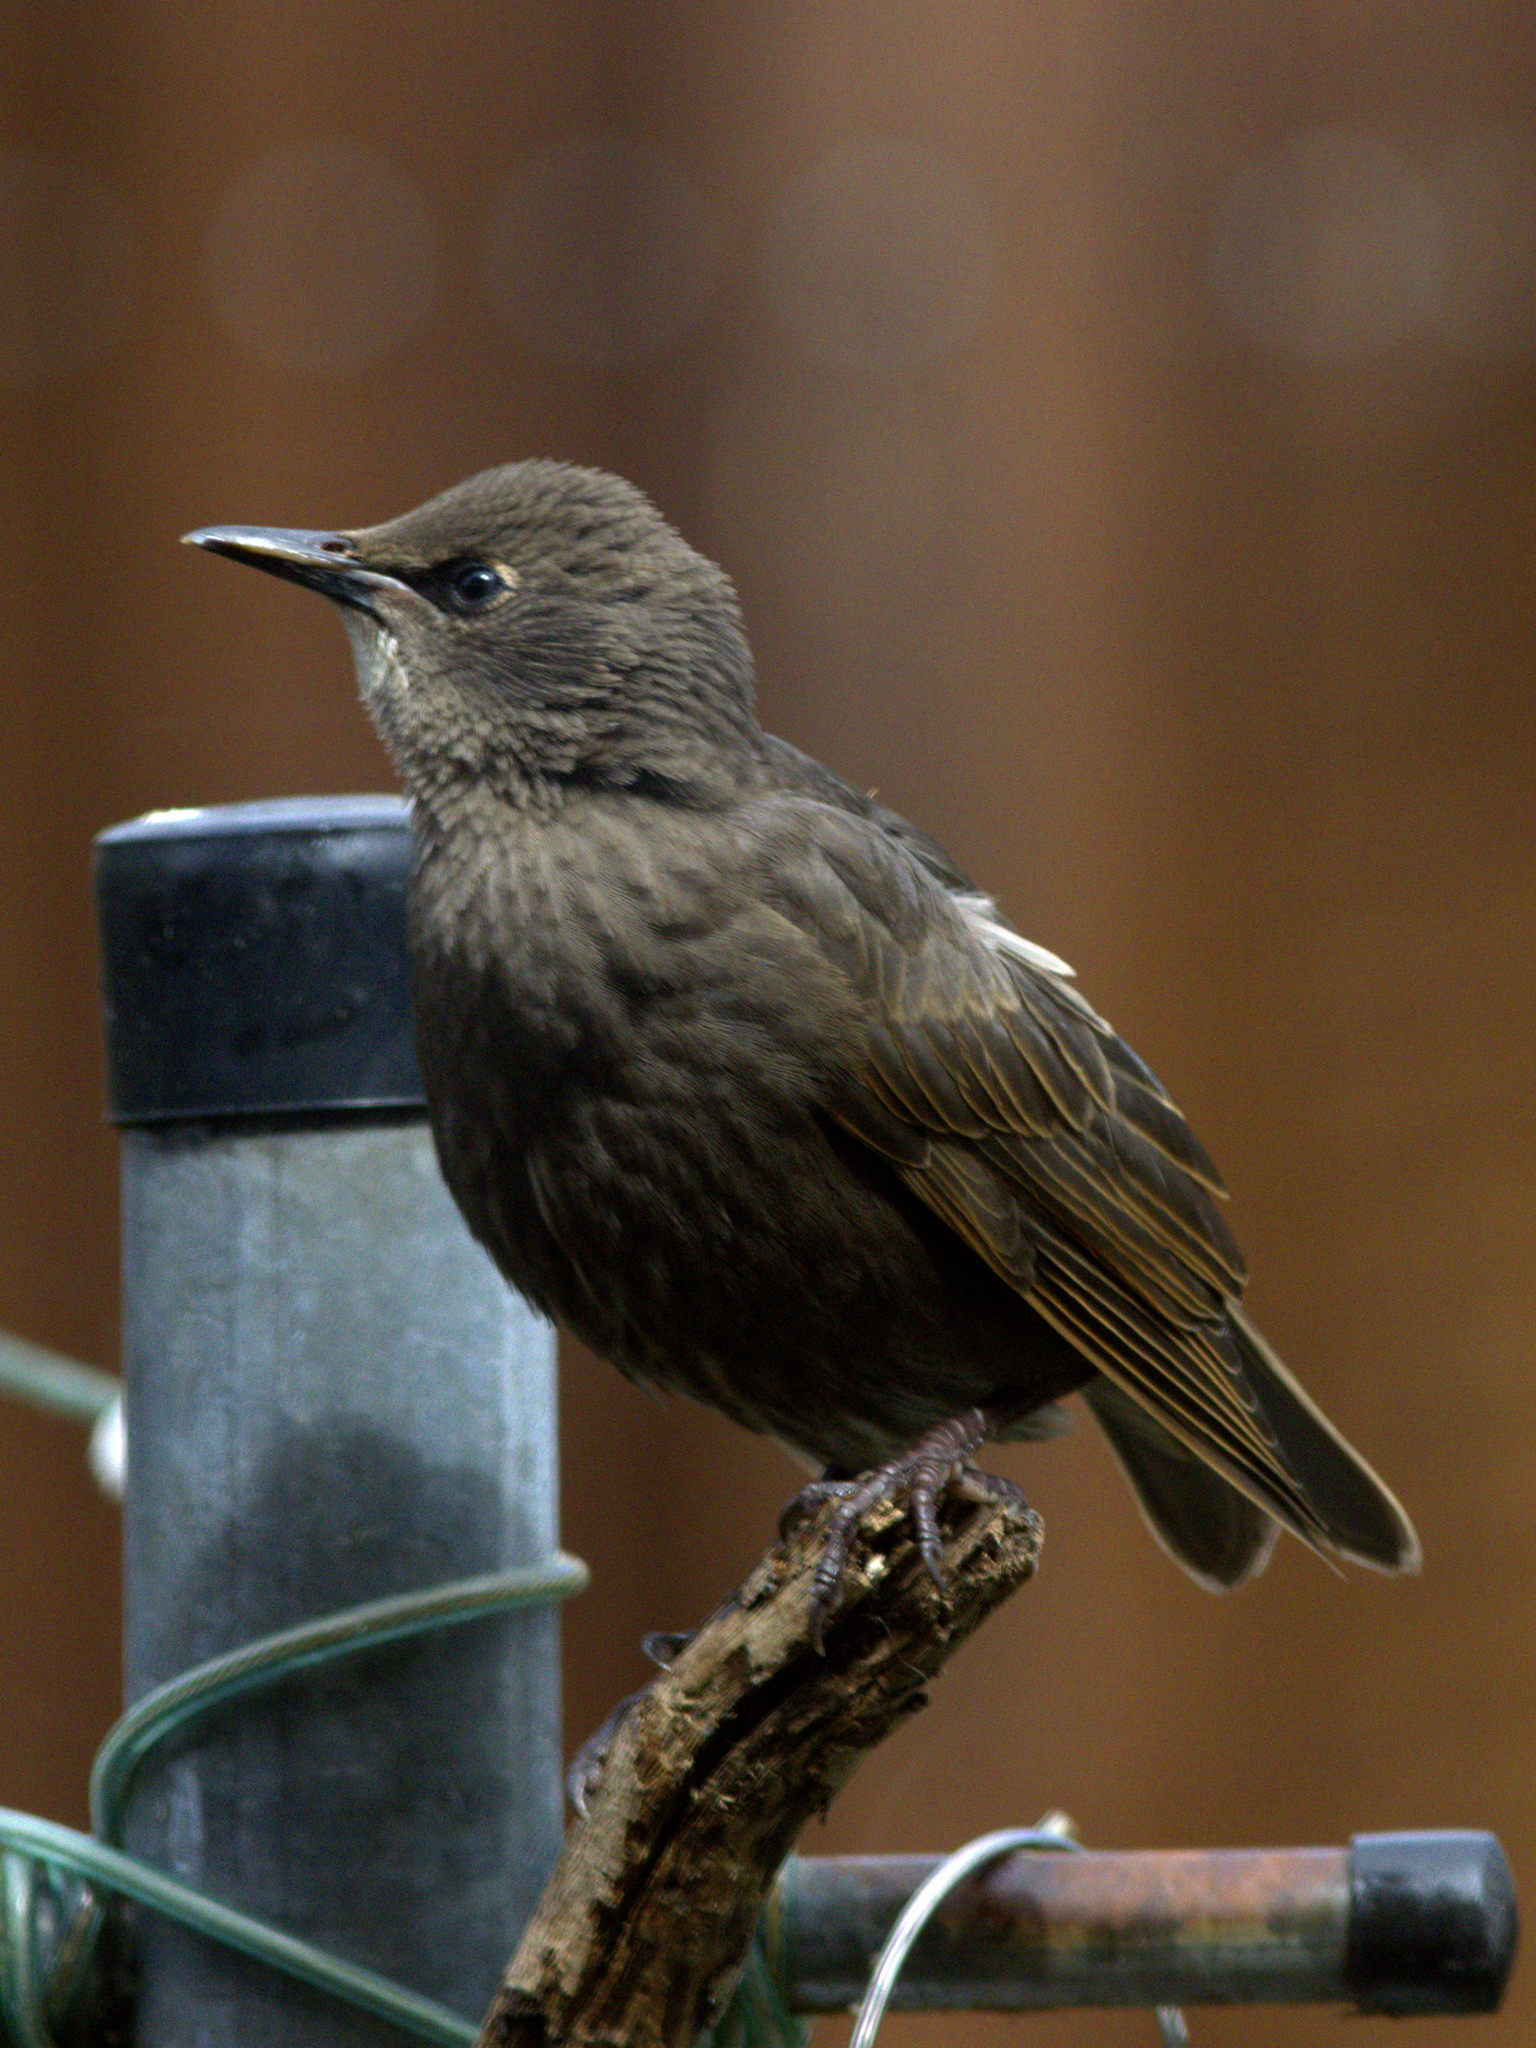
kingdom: Animalia
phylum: Chordata
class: Aves
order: Passeriformes
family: Sturnidae
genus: Sturnus
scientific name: Sturnus vulgaris
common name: Common starling
